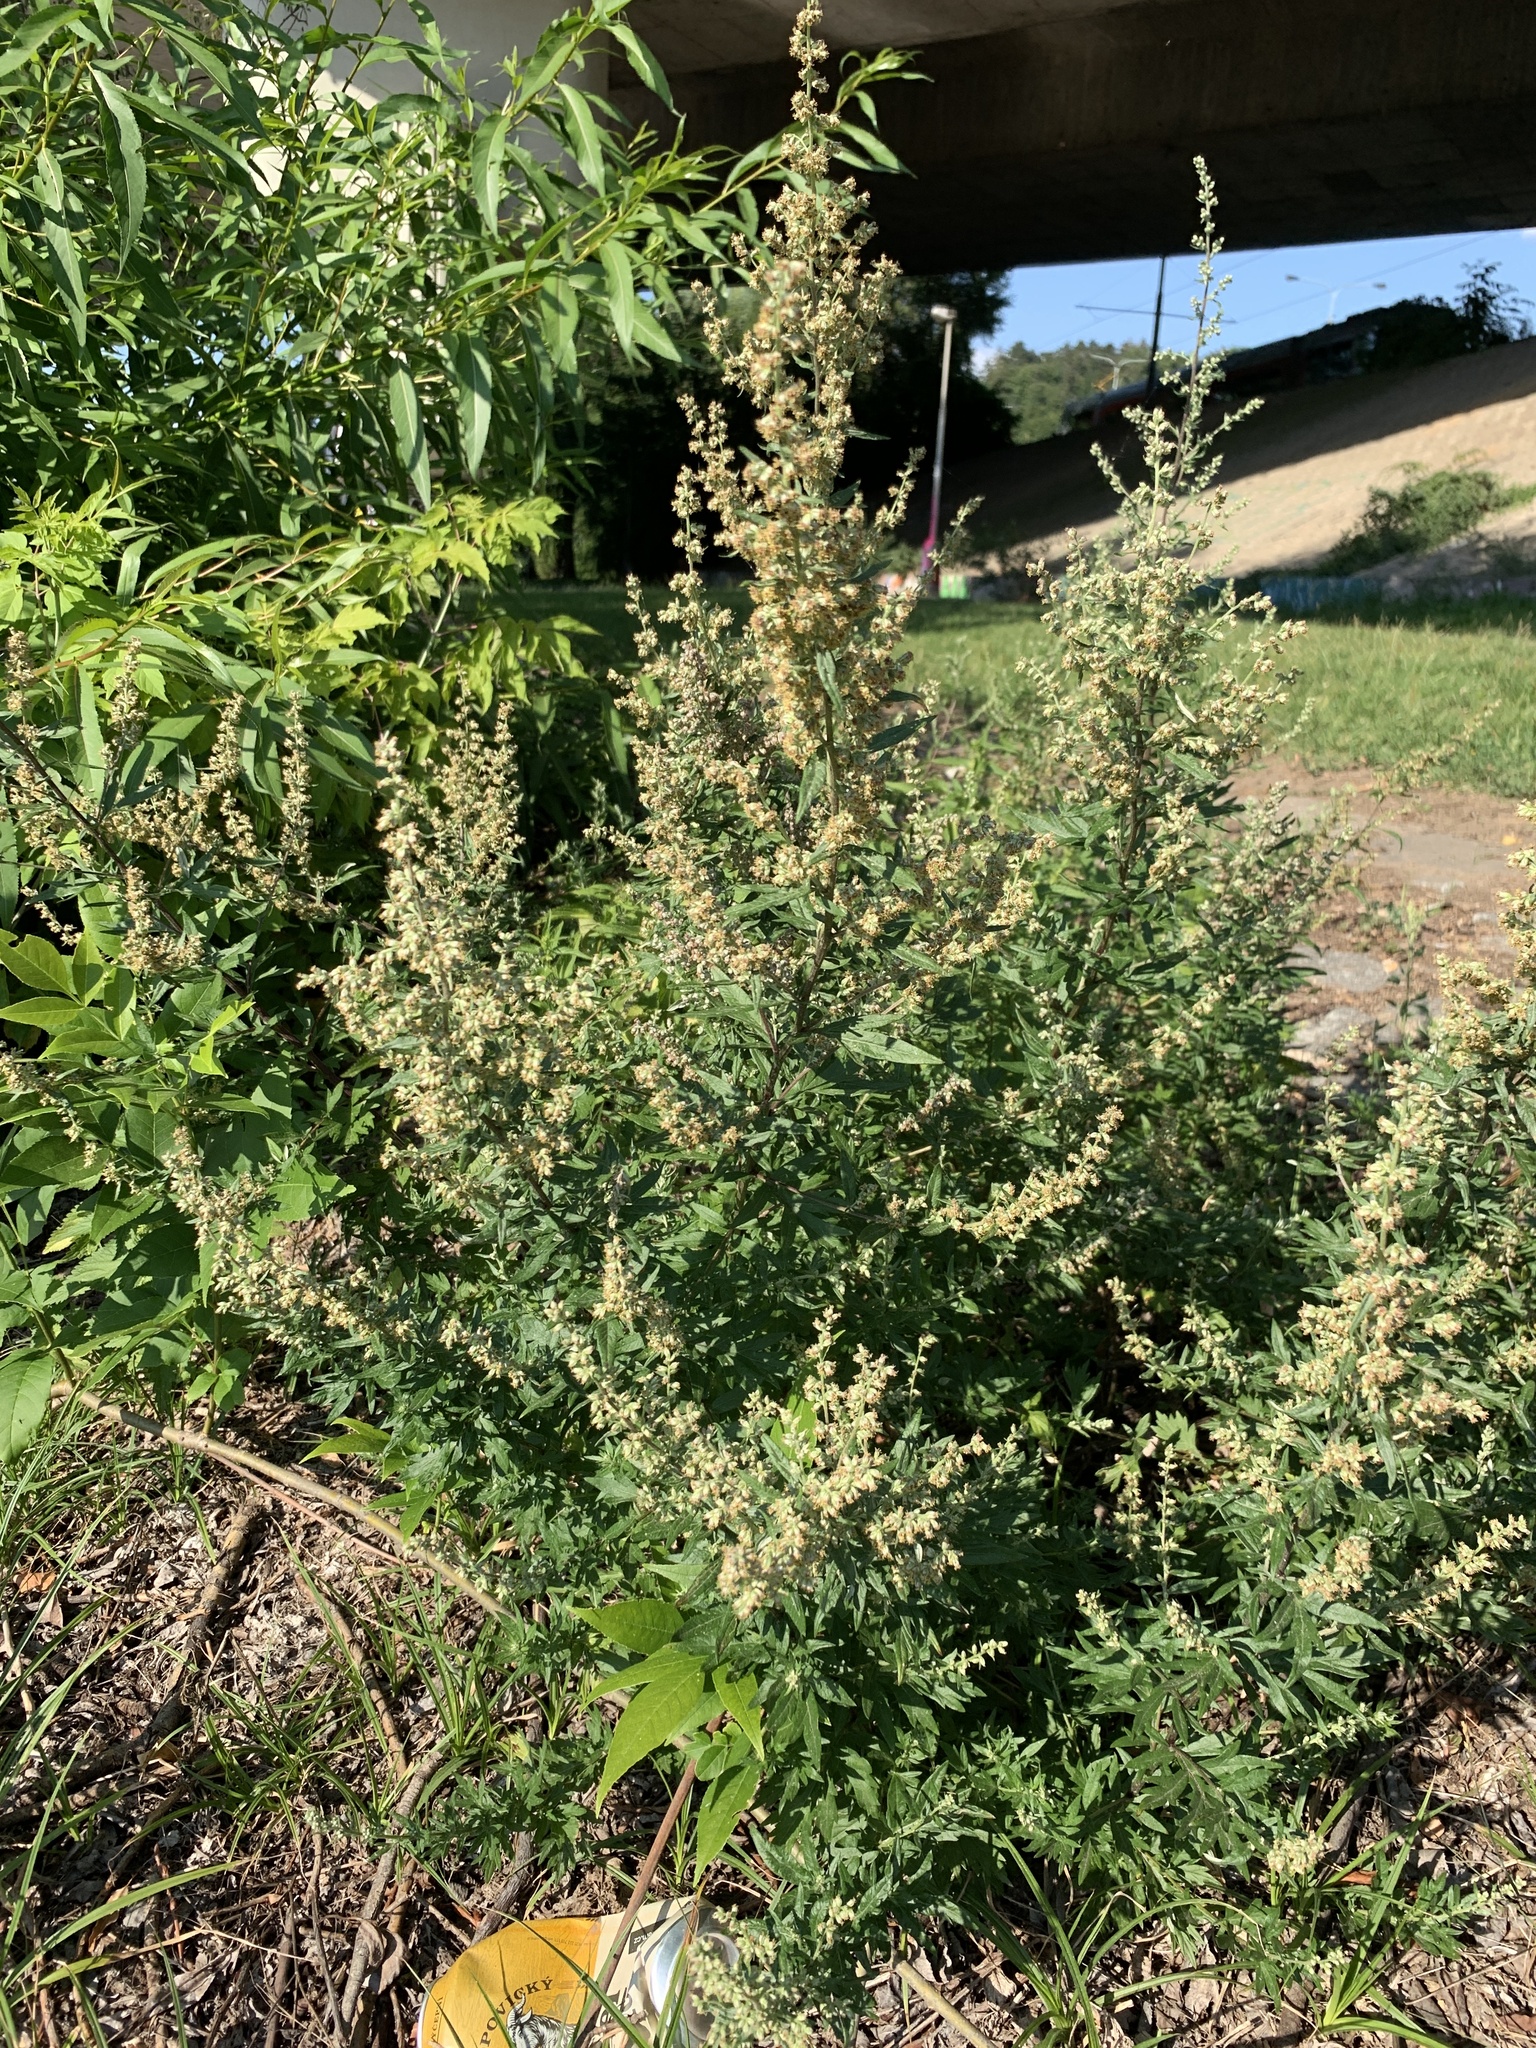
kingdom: Plantae
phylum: Tracheophyta
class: Magnoliopsida
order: Asterales
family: Asteraceae
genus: Artemisia
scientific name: Artemisia vulgaris
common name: Mugwort
